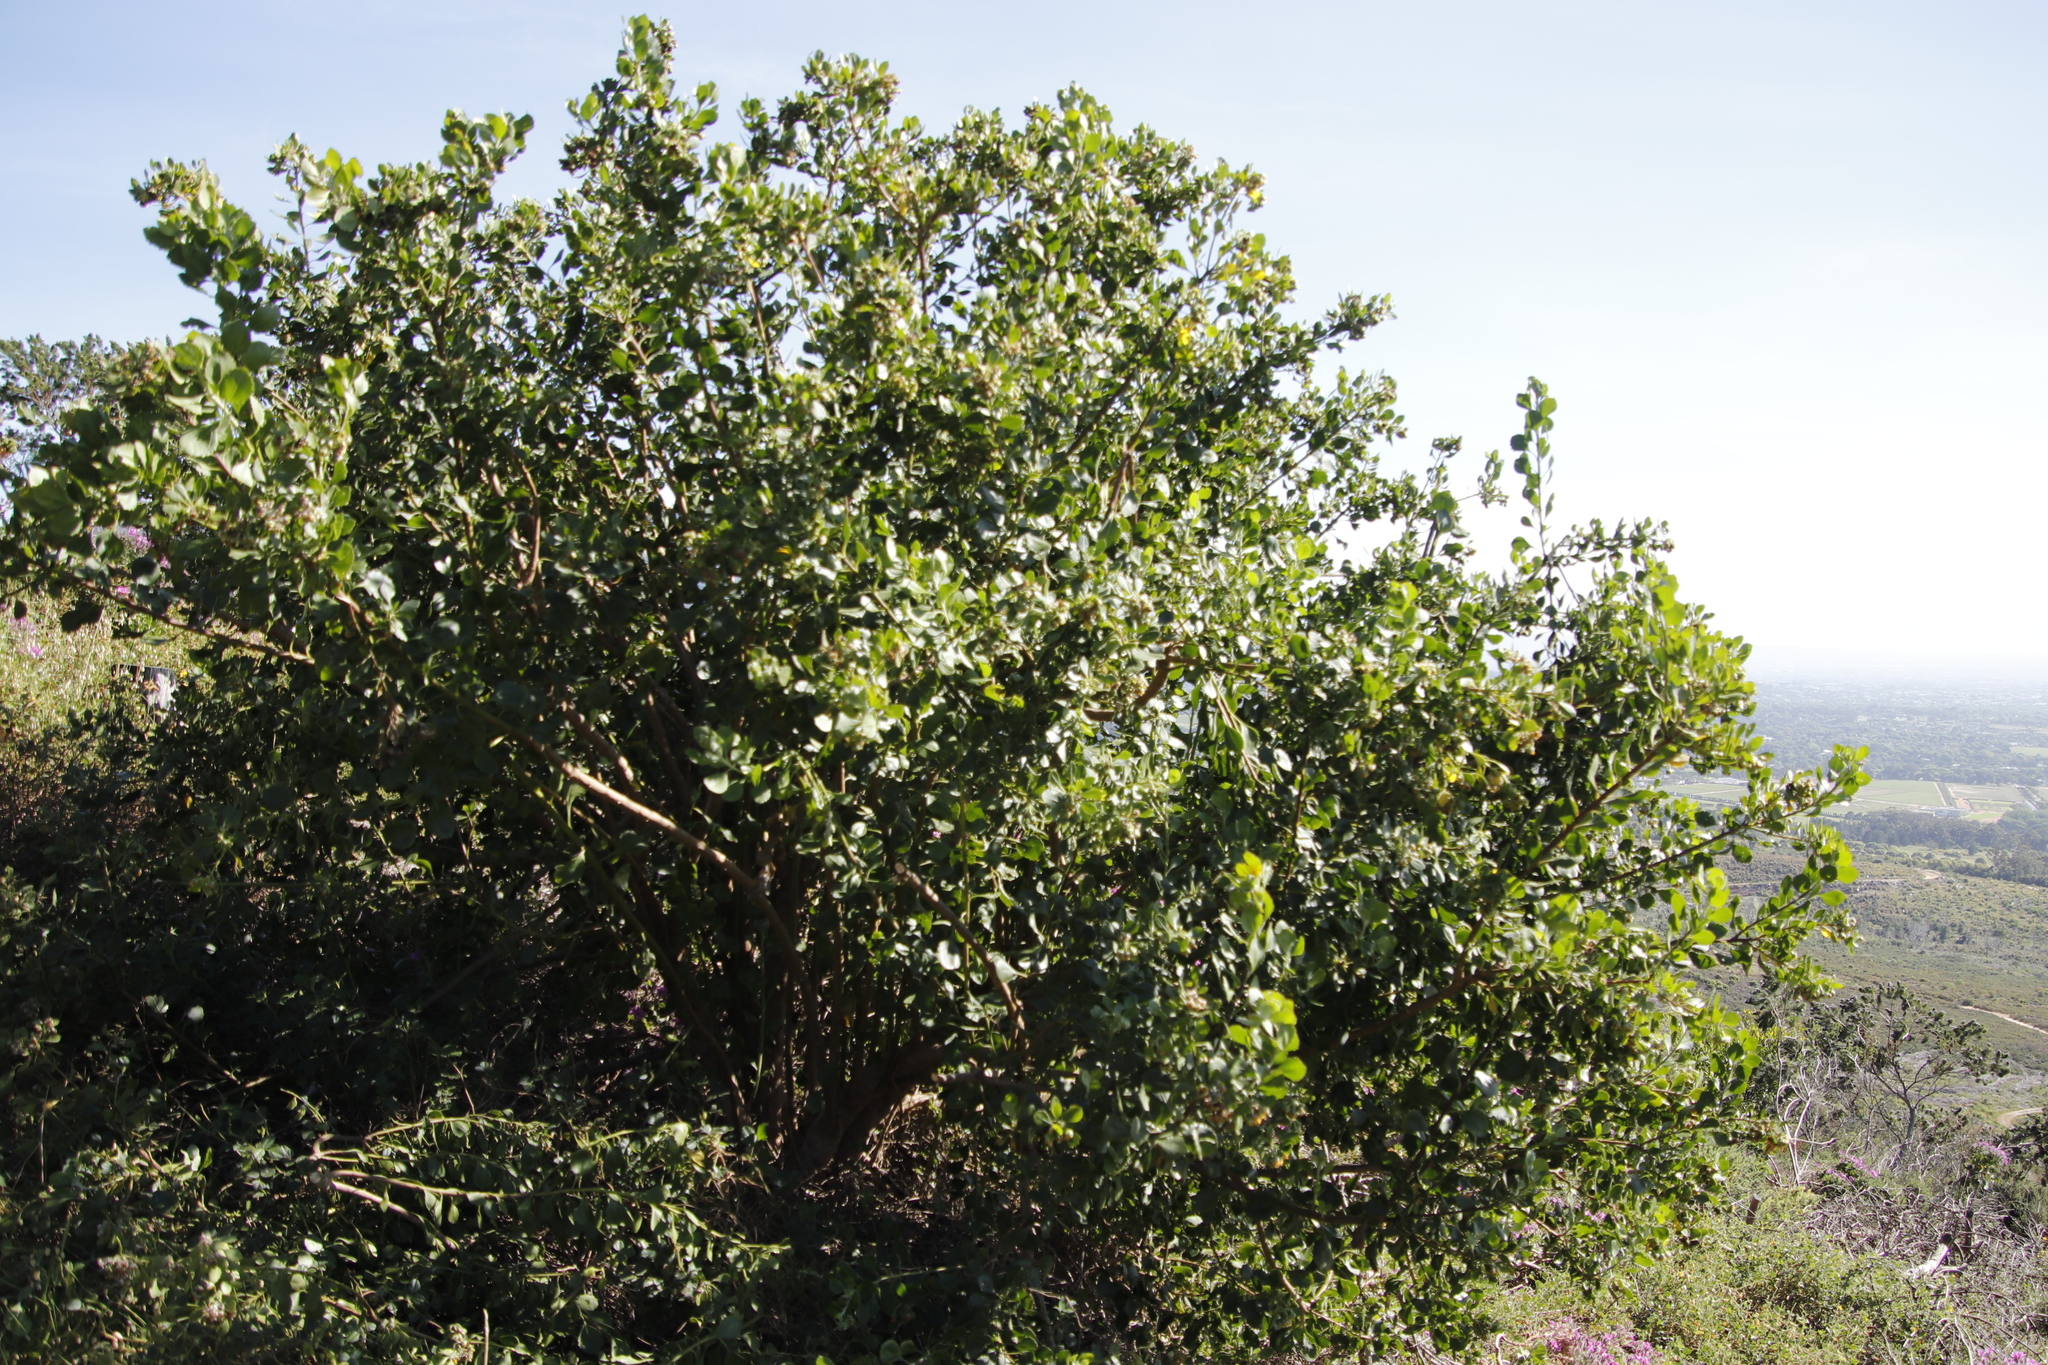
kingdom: Plantae
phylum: Tracheophyta
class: Magnoliopsida
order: Asterales
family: Asteraceae
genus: Osteospermum
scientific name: Osteospermum moniliferum
